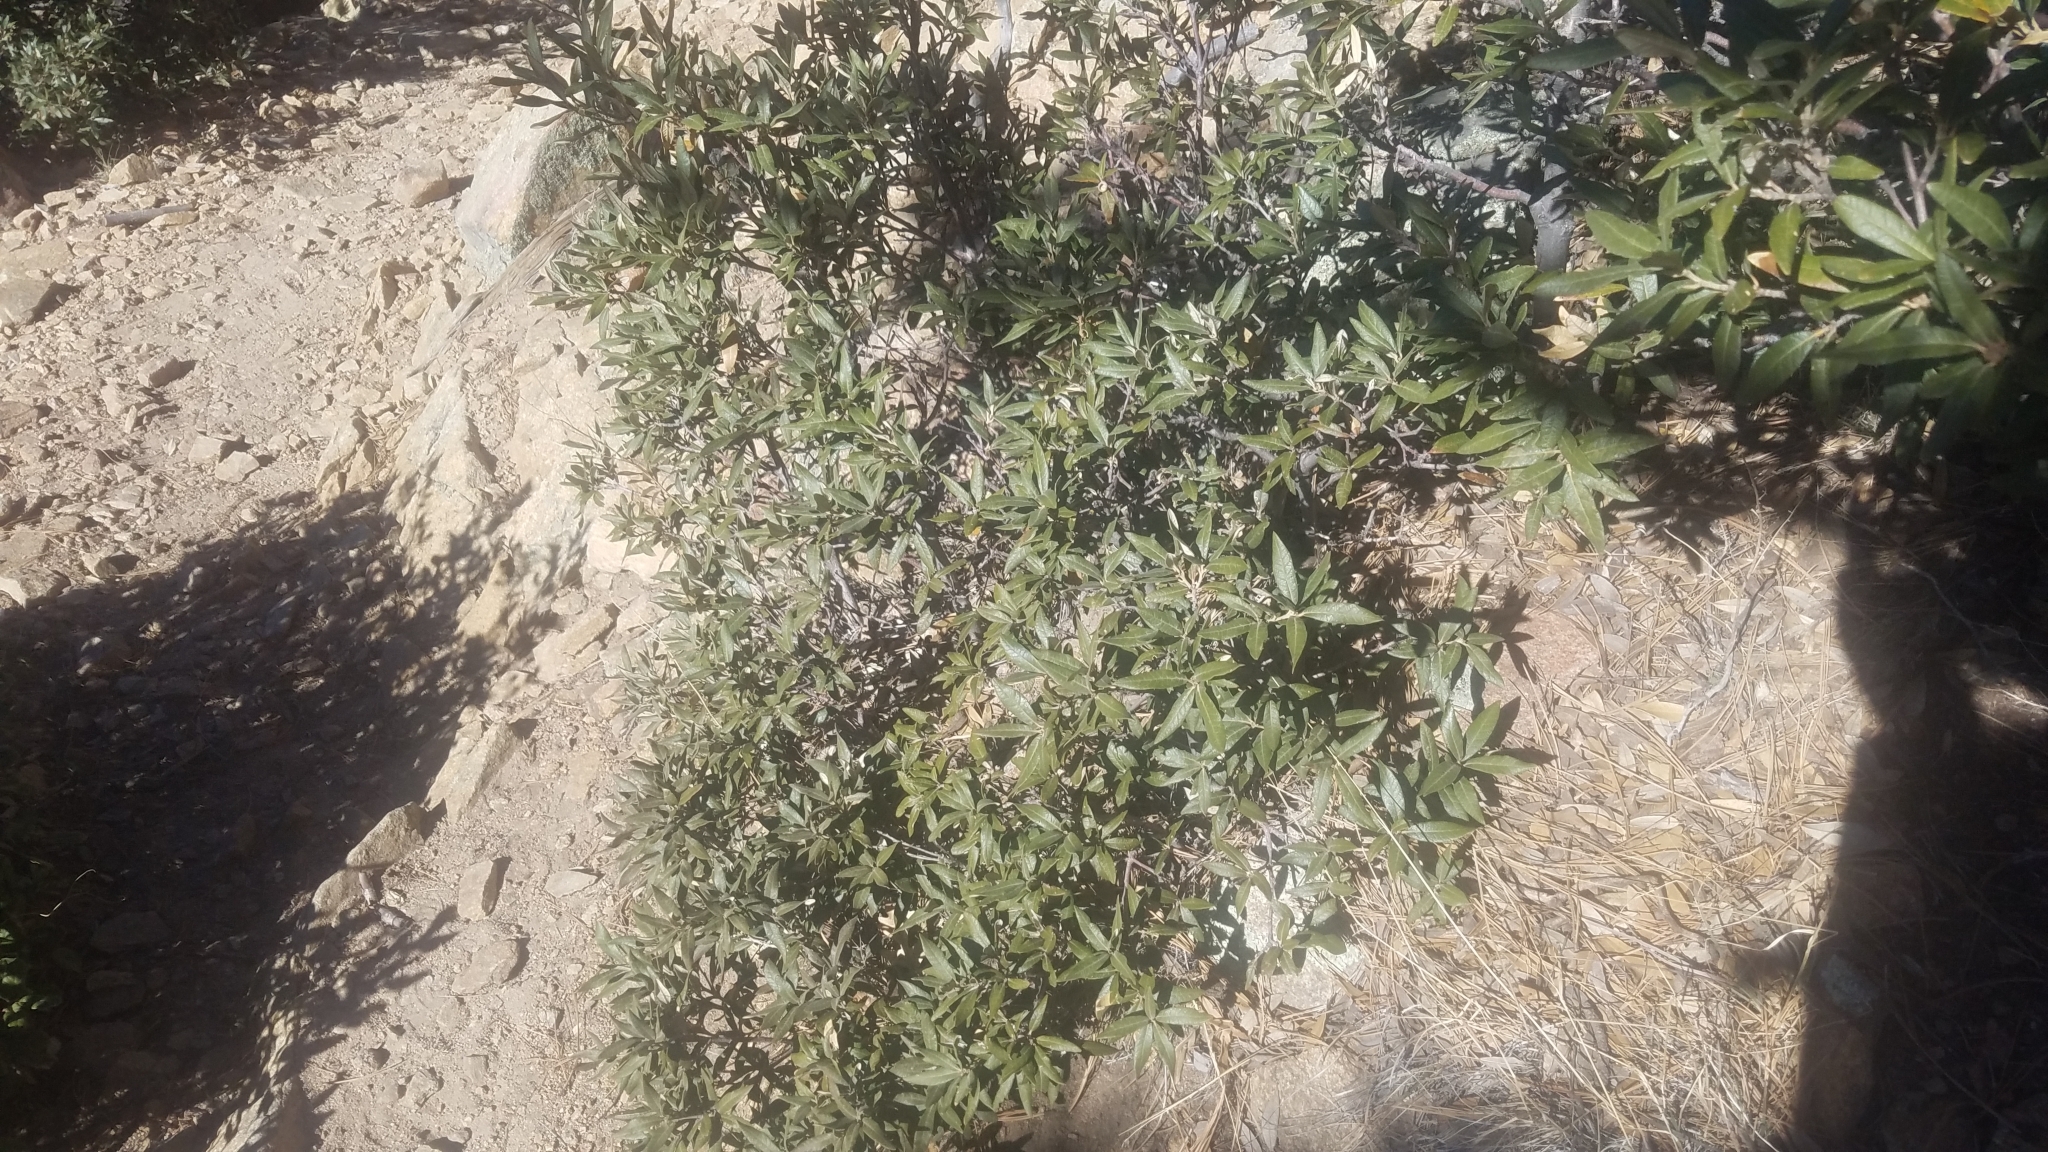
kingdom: Plantae
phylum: Tracheophyta
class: Magnoliopsida
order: Fagales
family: Fagaceae
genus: Quercus
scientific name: Quercus hypoleucoides
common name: Silverleaf oak
